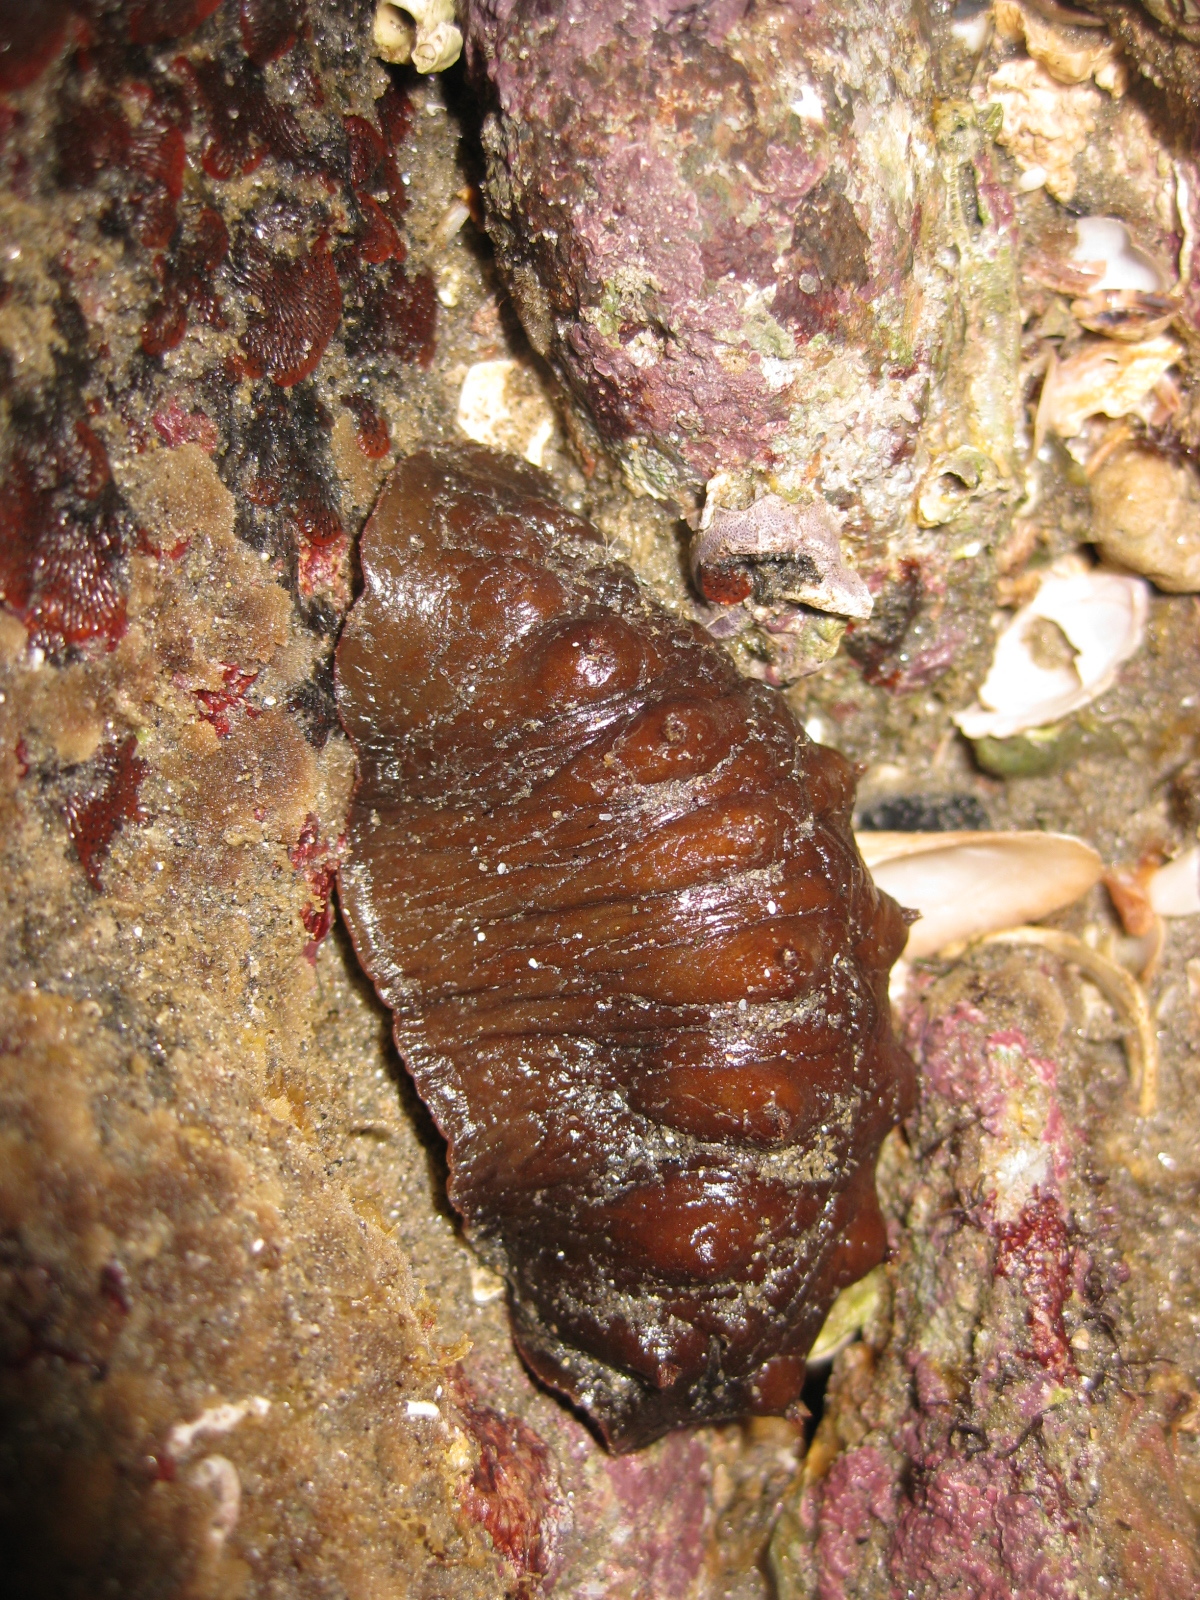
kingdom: Animalia
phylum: Mollusca
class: Polyplacophora
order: Chitonida
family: Acanthochitonidae
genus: Cryptoconchus
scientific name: Cryptoconchus porosus
